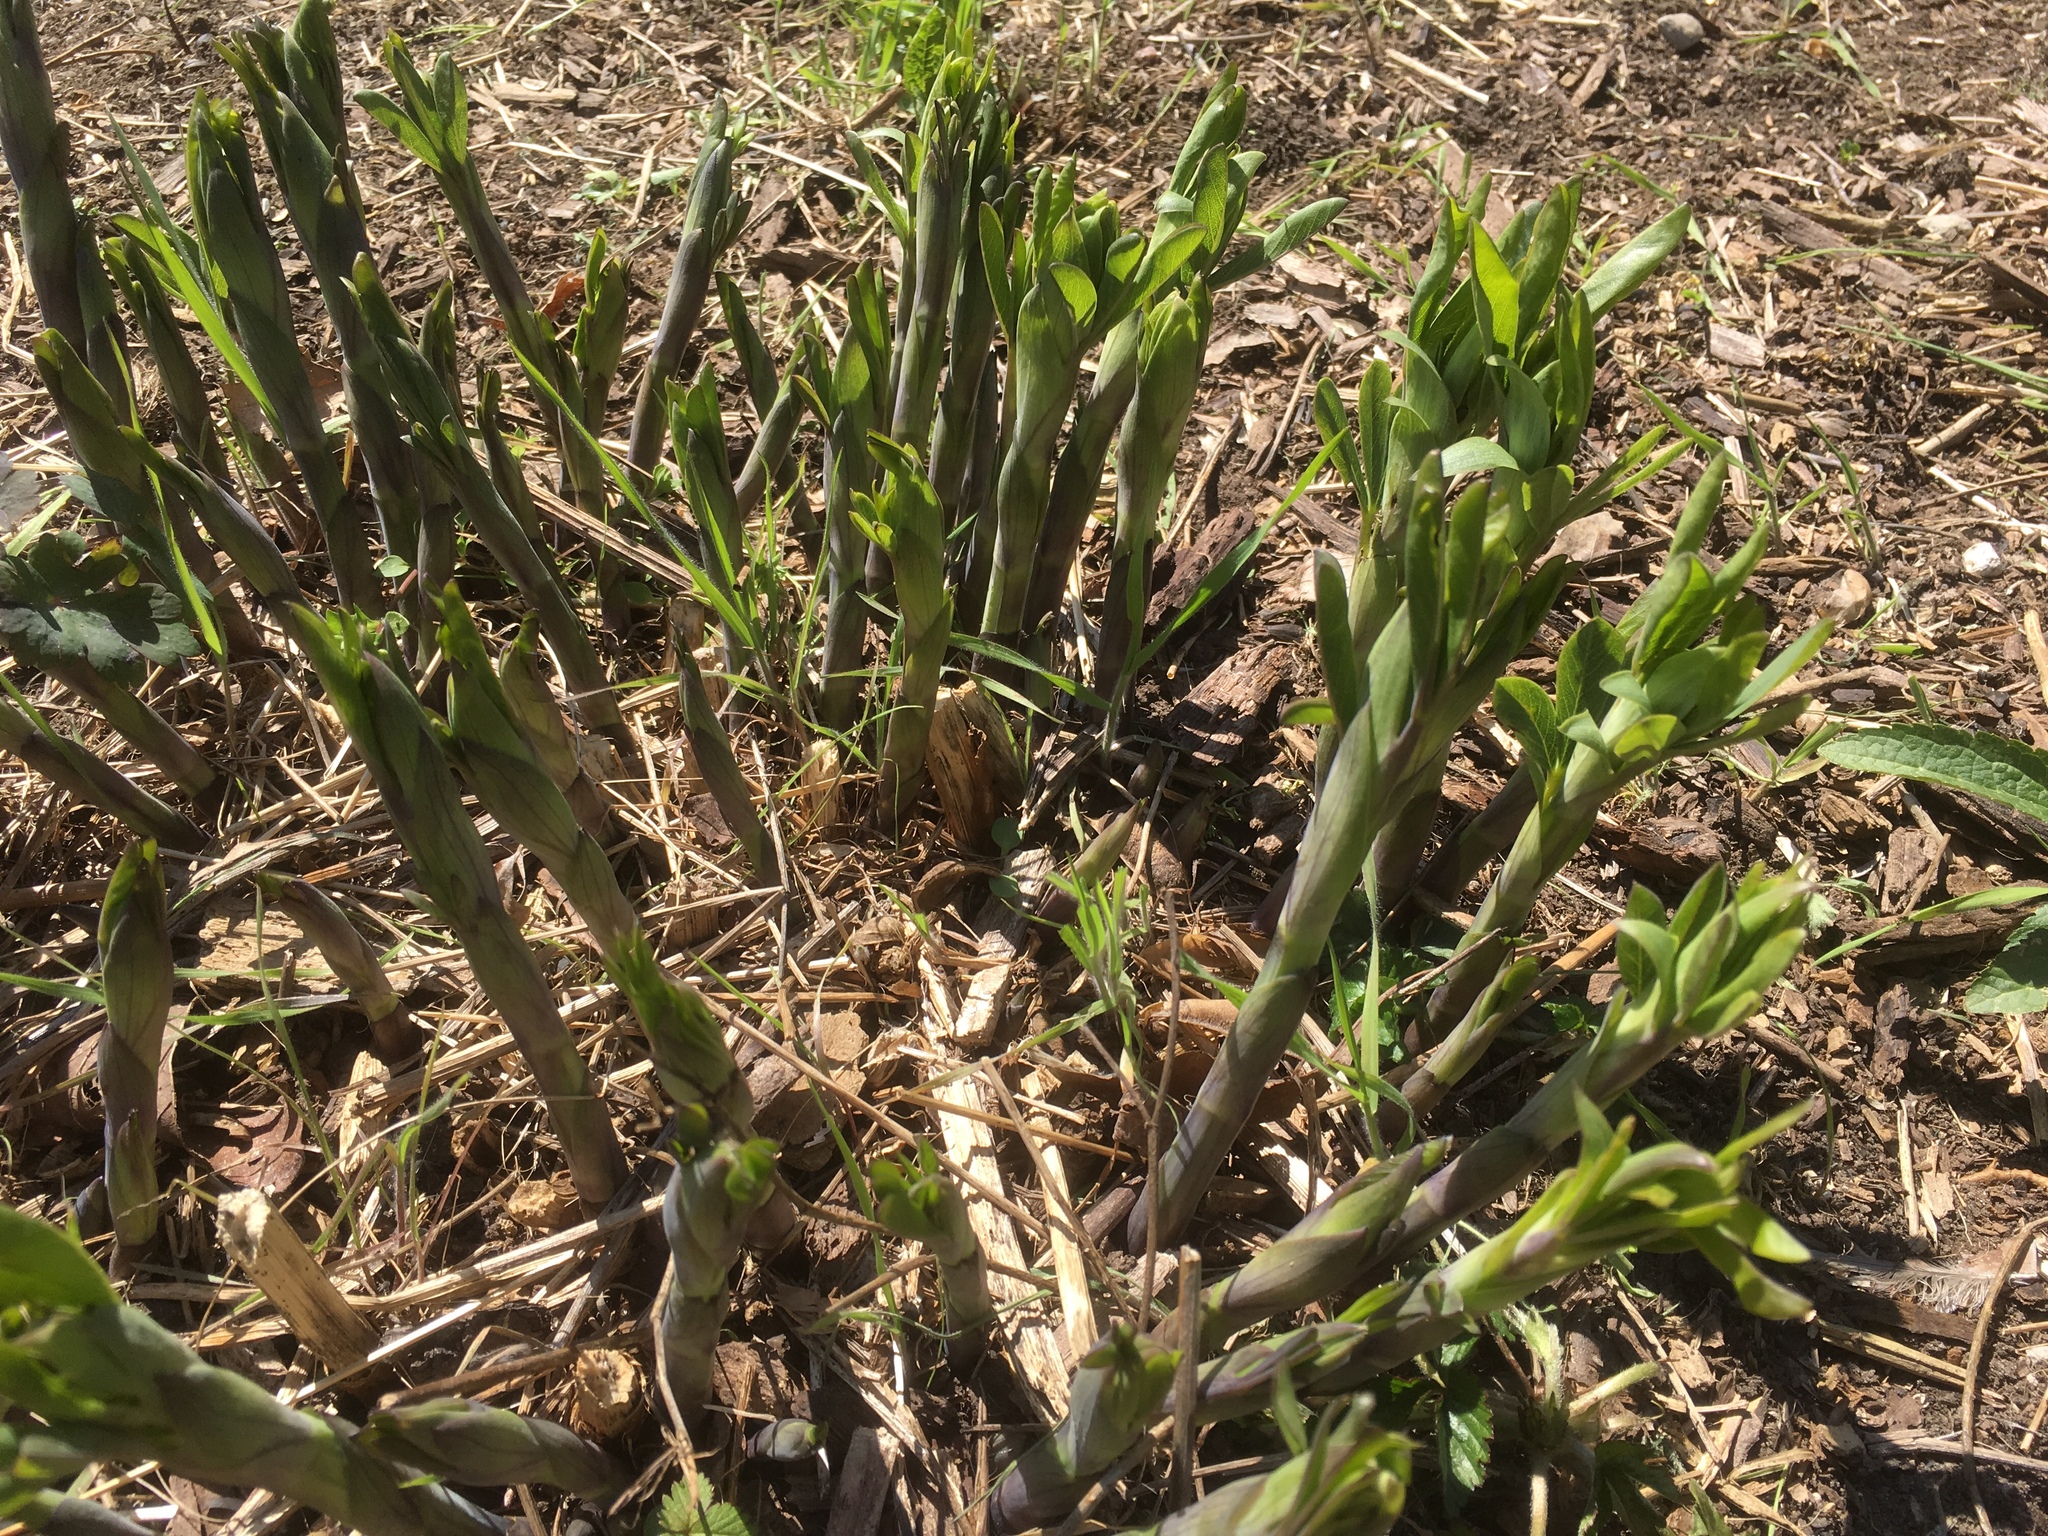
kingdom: Plantae
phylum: Tracheophyta
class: Magnoliopsida
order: Fabales
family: Fabaceae
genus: Baptisia
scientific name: Baptisia australis
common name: Blue false indigo
